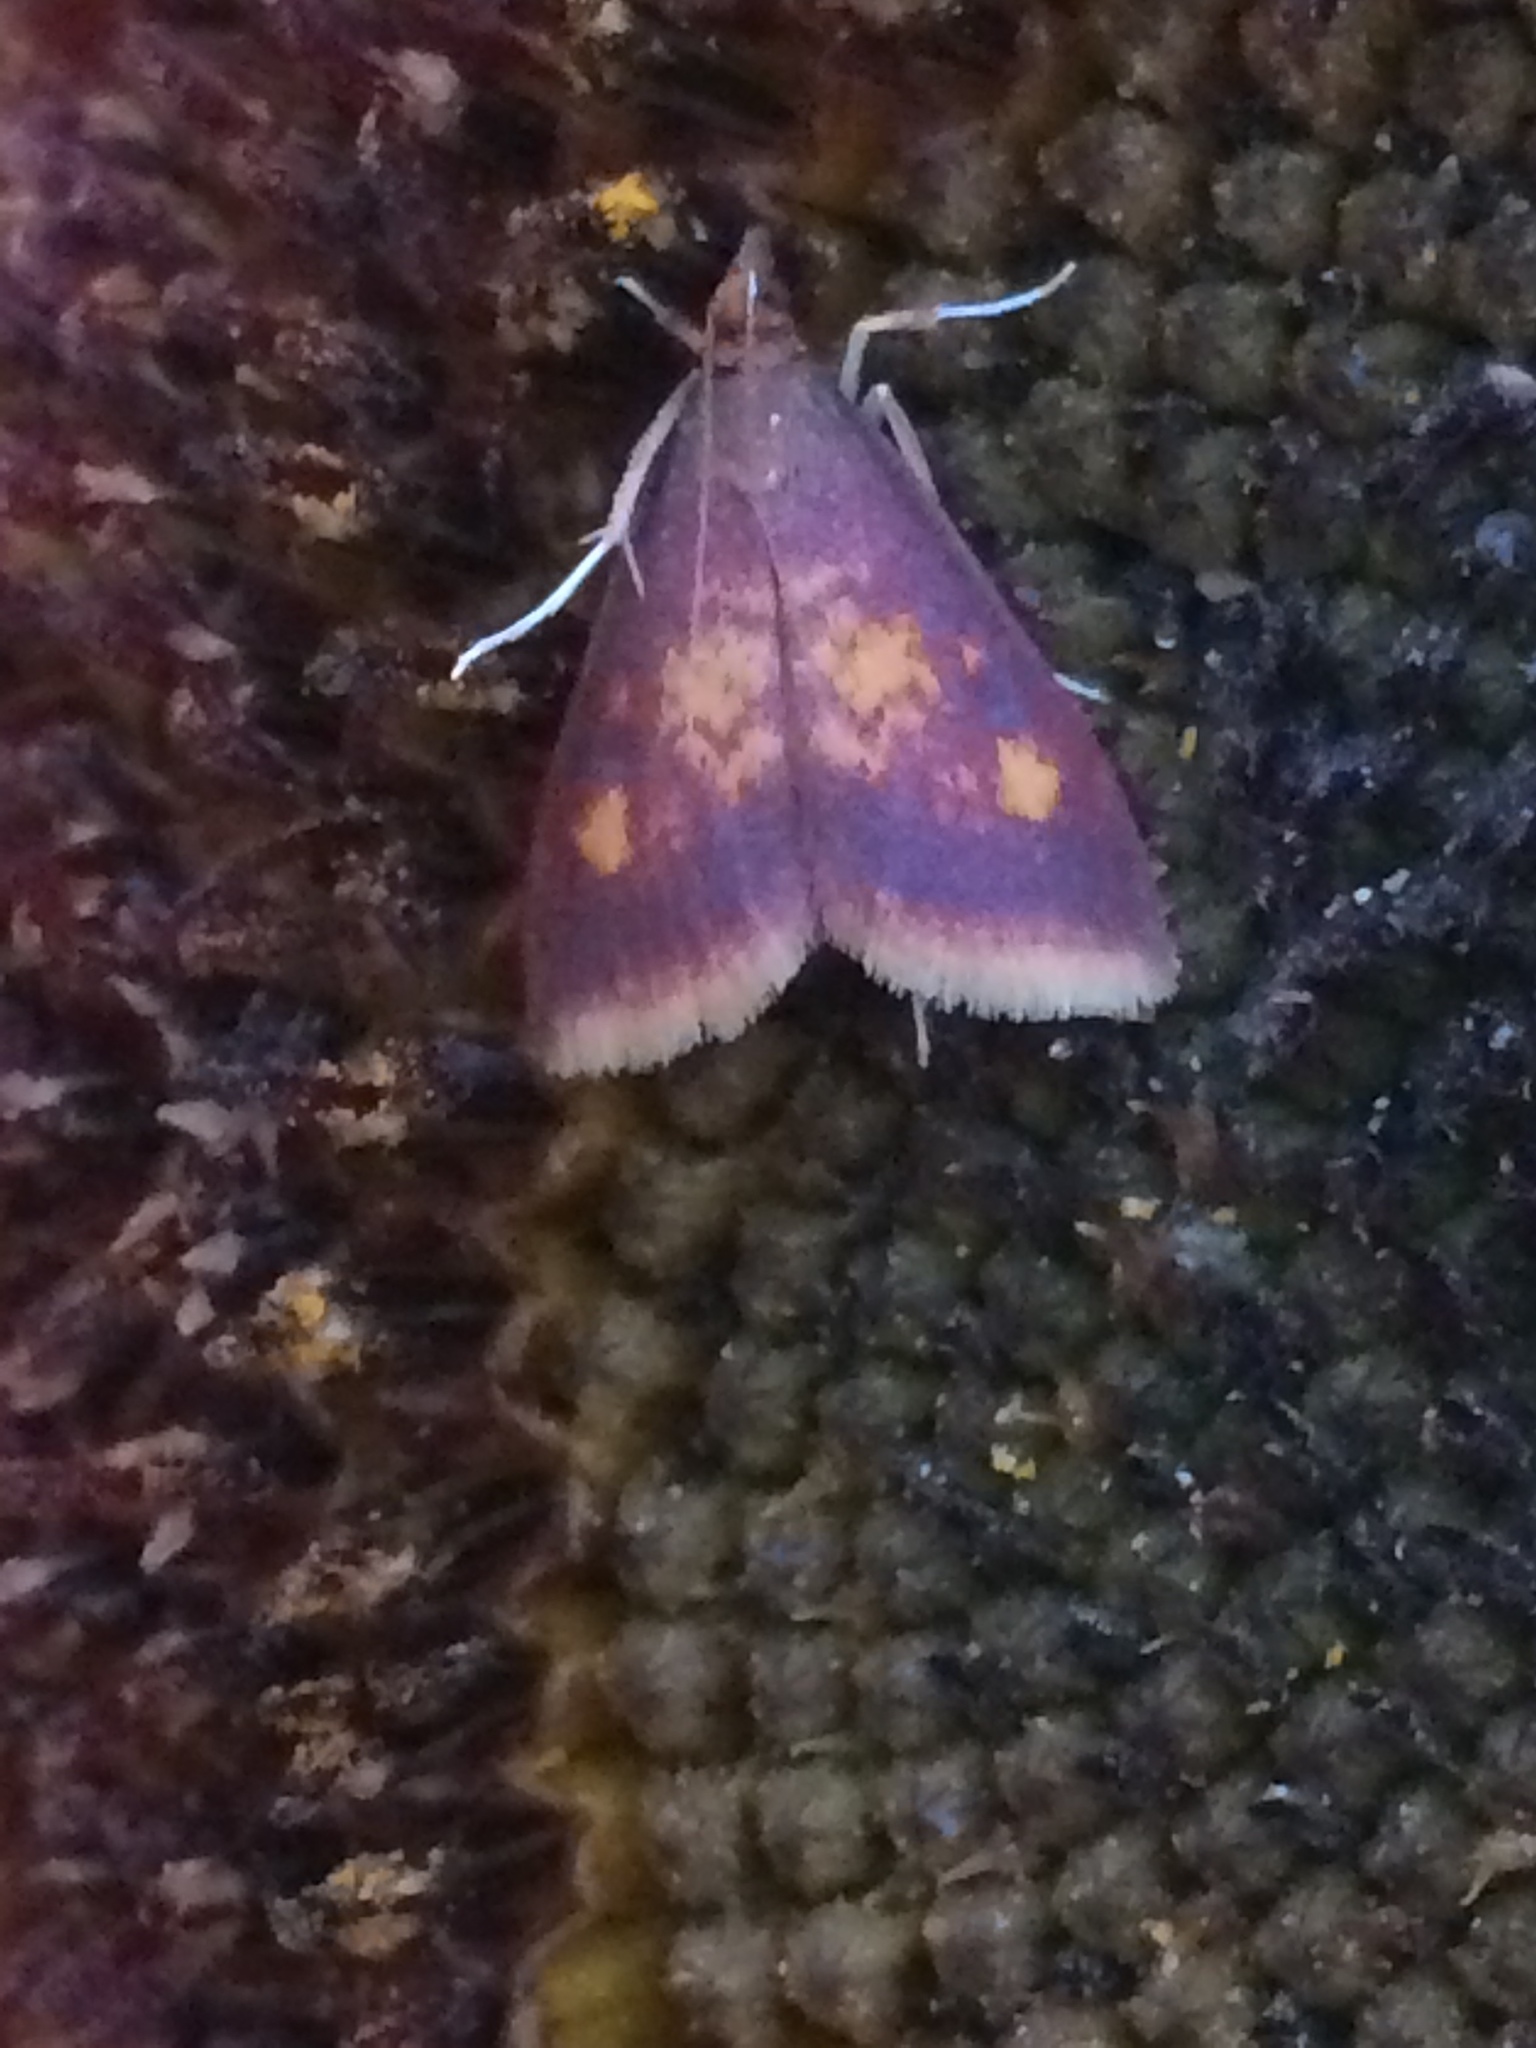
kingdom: Animalia
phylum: Arthropoda
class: Insecta
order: Lepidoptera
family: Crambidae
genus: Pyrausta
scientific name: Pyrausta acrionalis
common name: Mint-loving pyrausta moth
